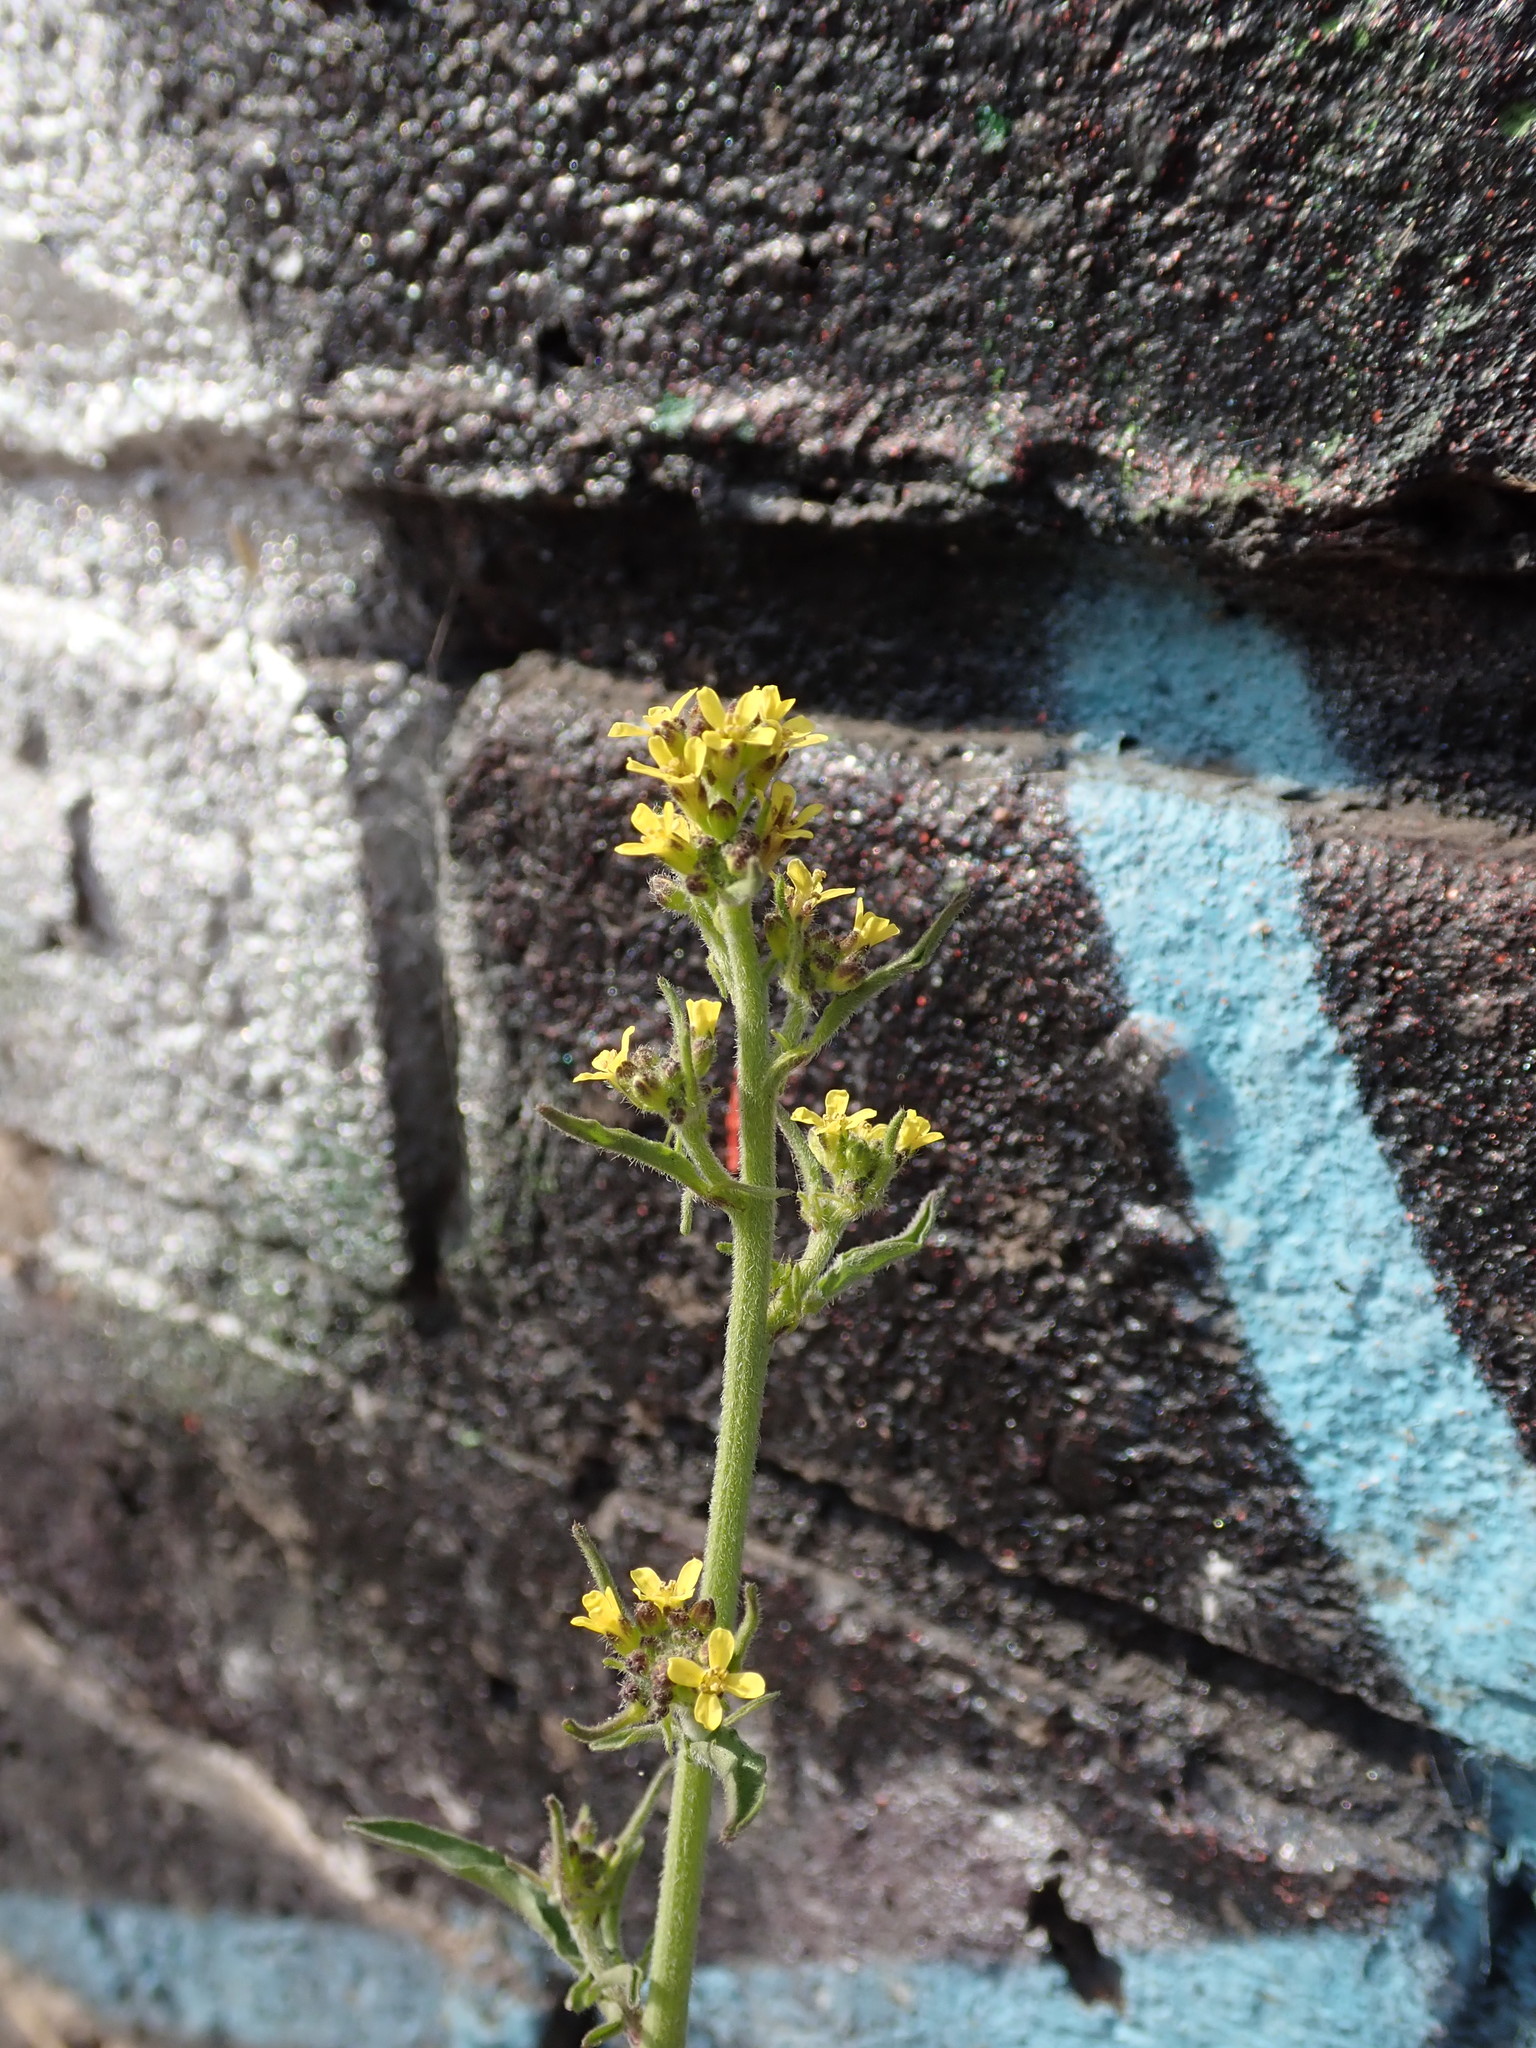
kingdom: Plantae
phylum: Tracheophyta
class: Magnoliopsida
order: Brassicales
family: Brassicaceae
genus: Sisymbrium
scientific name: Sisymbrium officinale
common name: Hedge mustard
